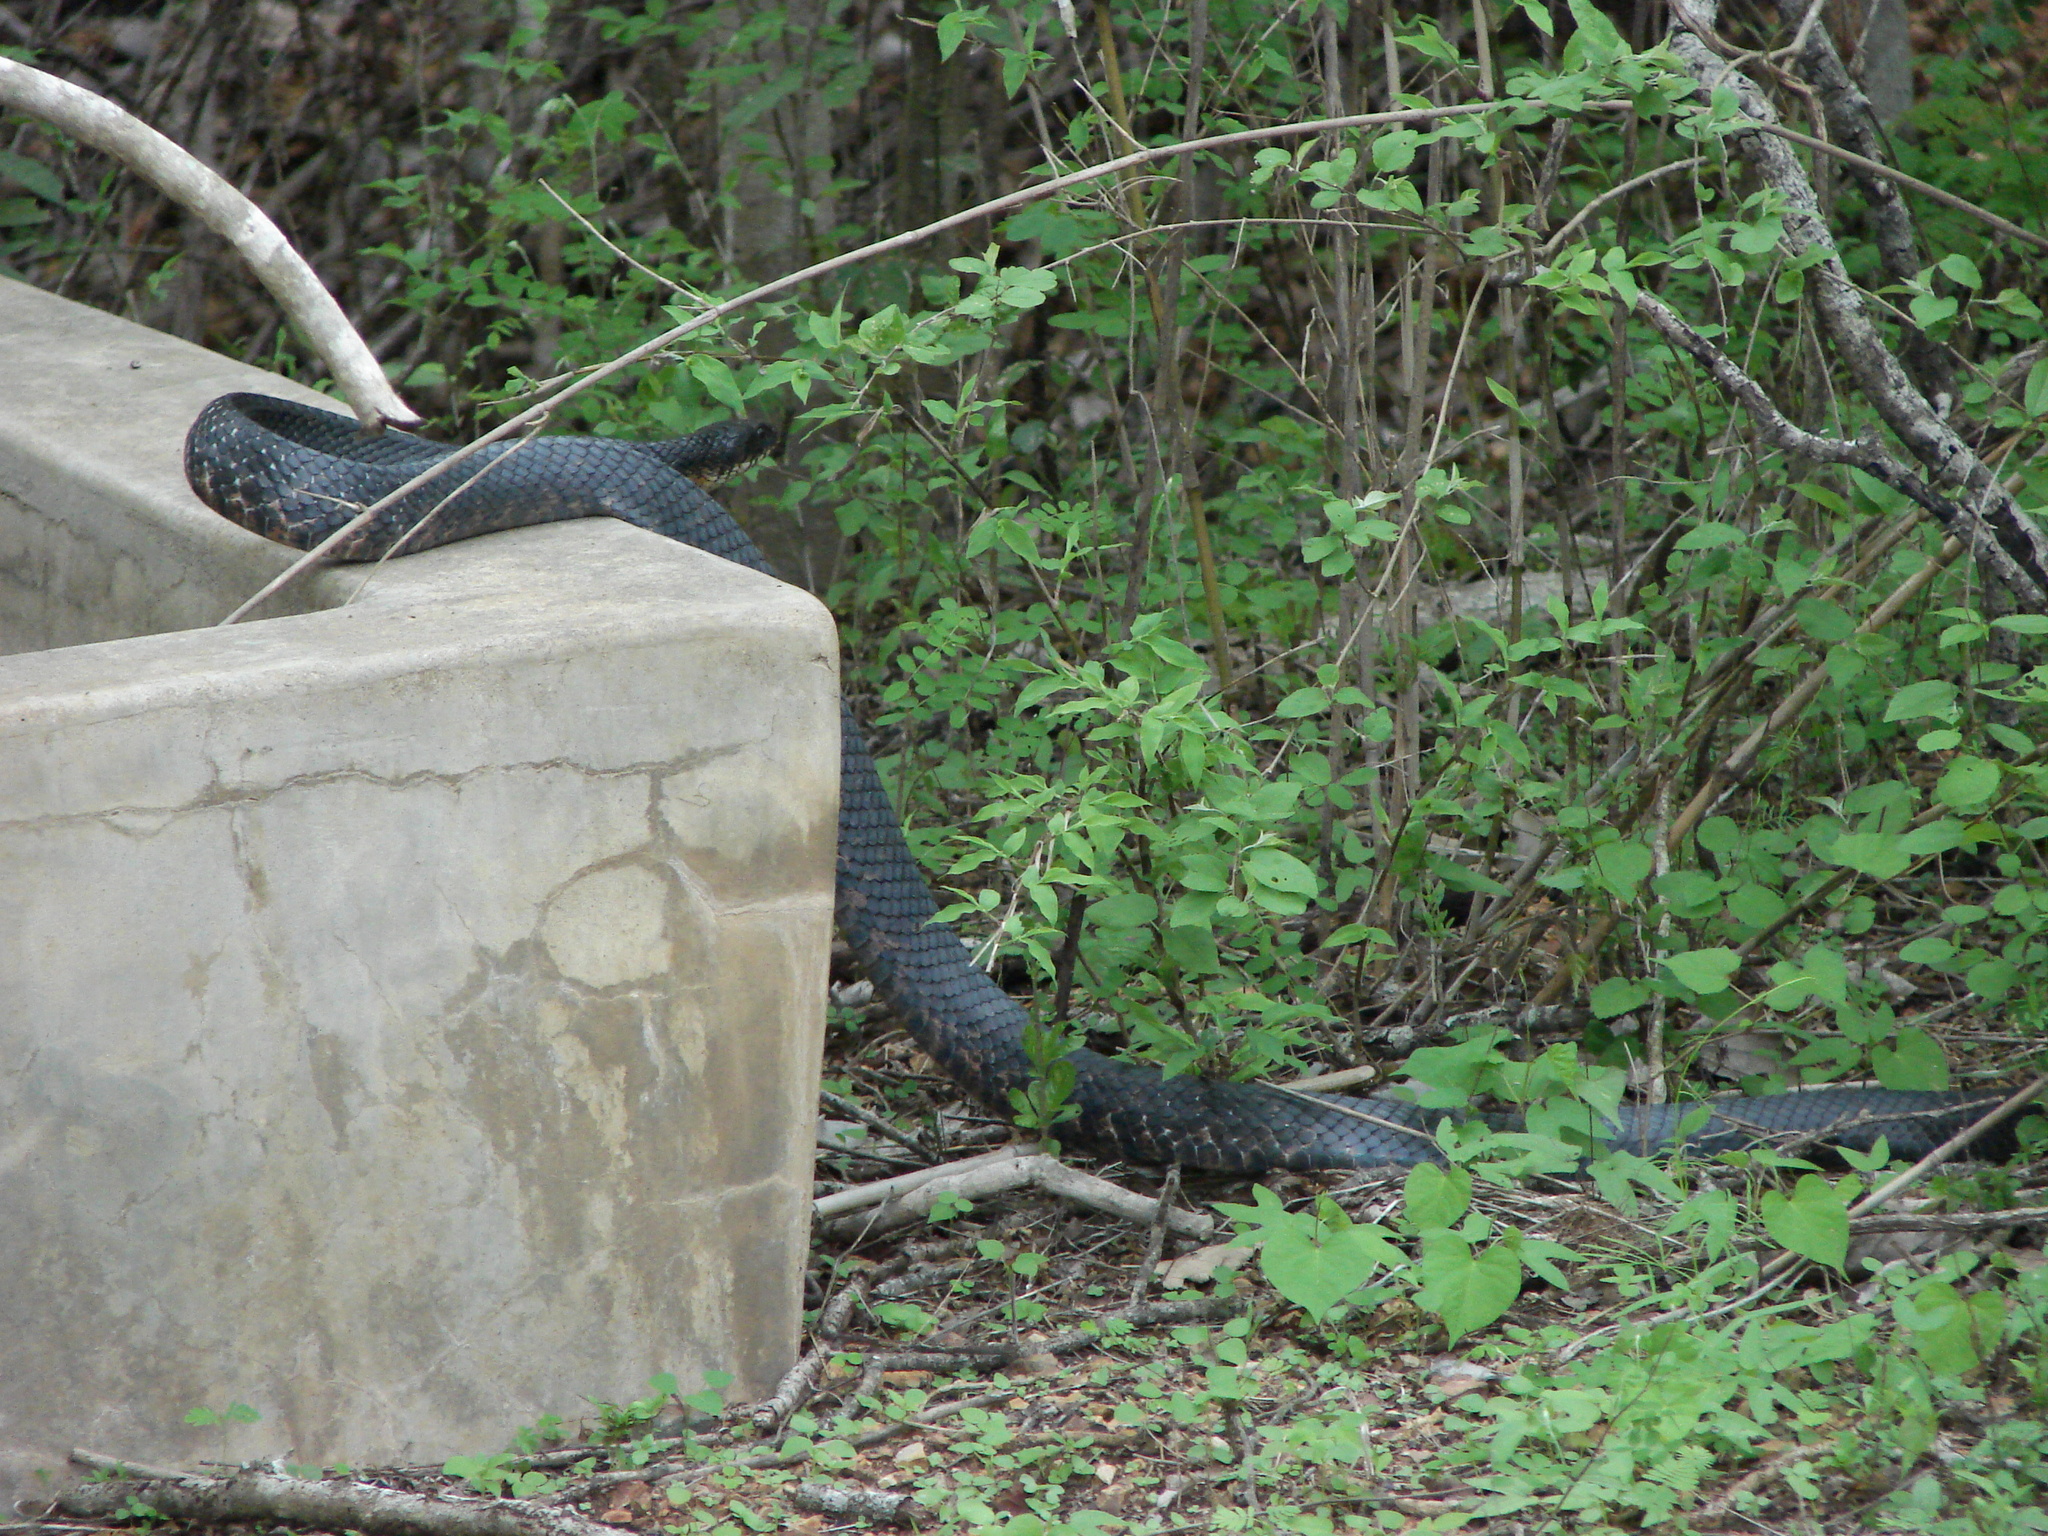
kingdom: Animalia
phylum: Chordata
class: Squamata
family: Colubridae
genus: Drymarchon
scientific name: Drymarchon melanurus
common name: Central american indigo snake
